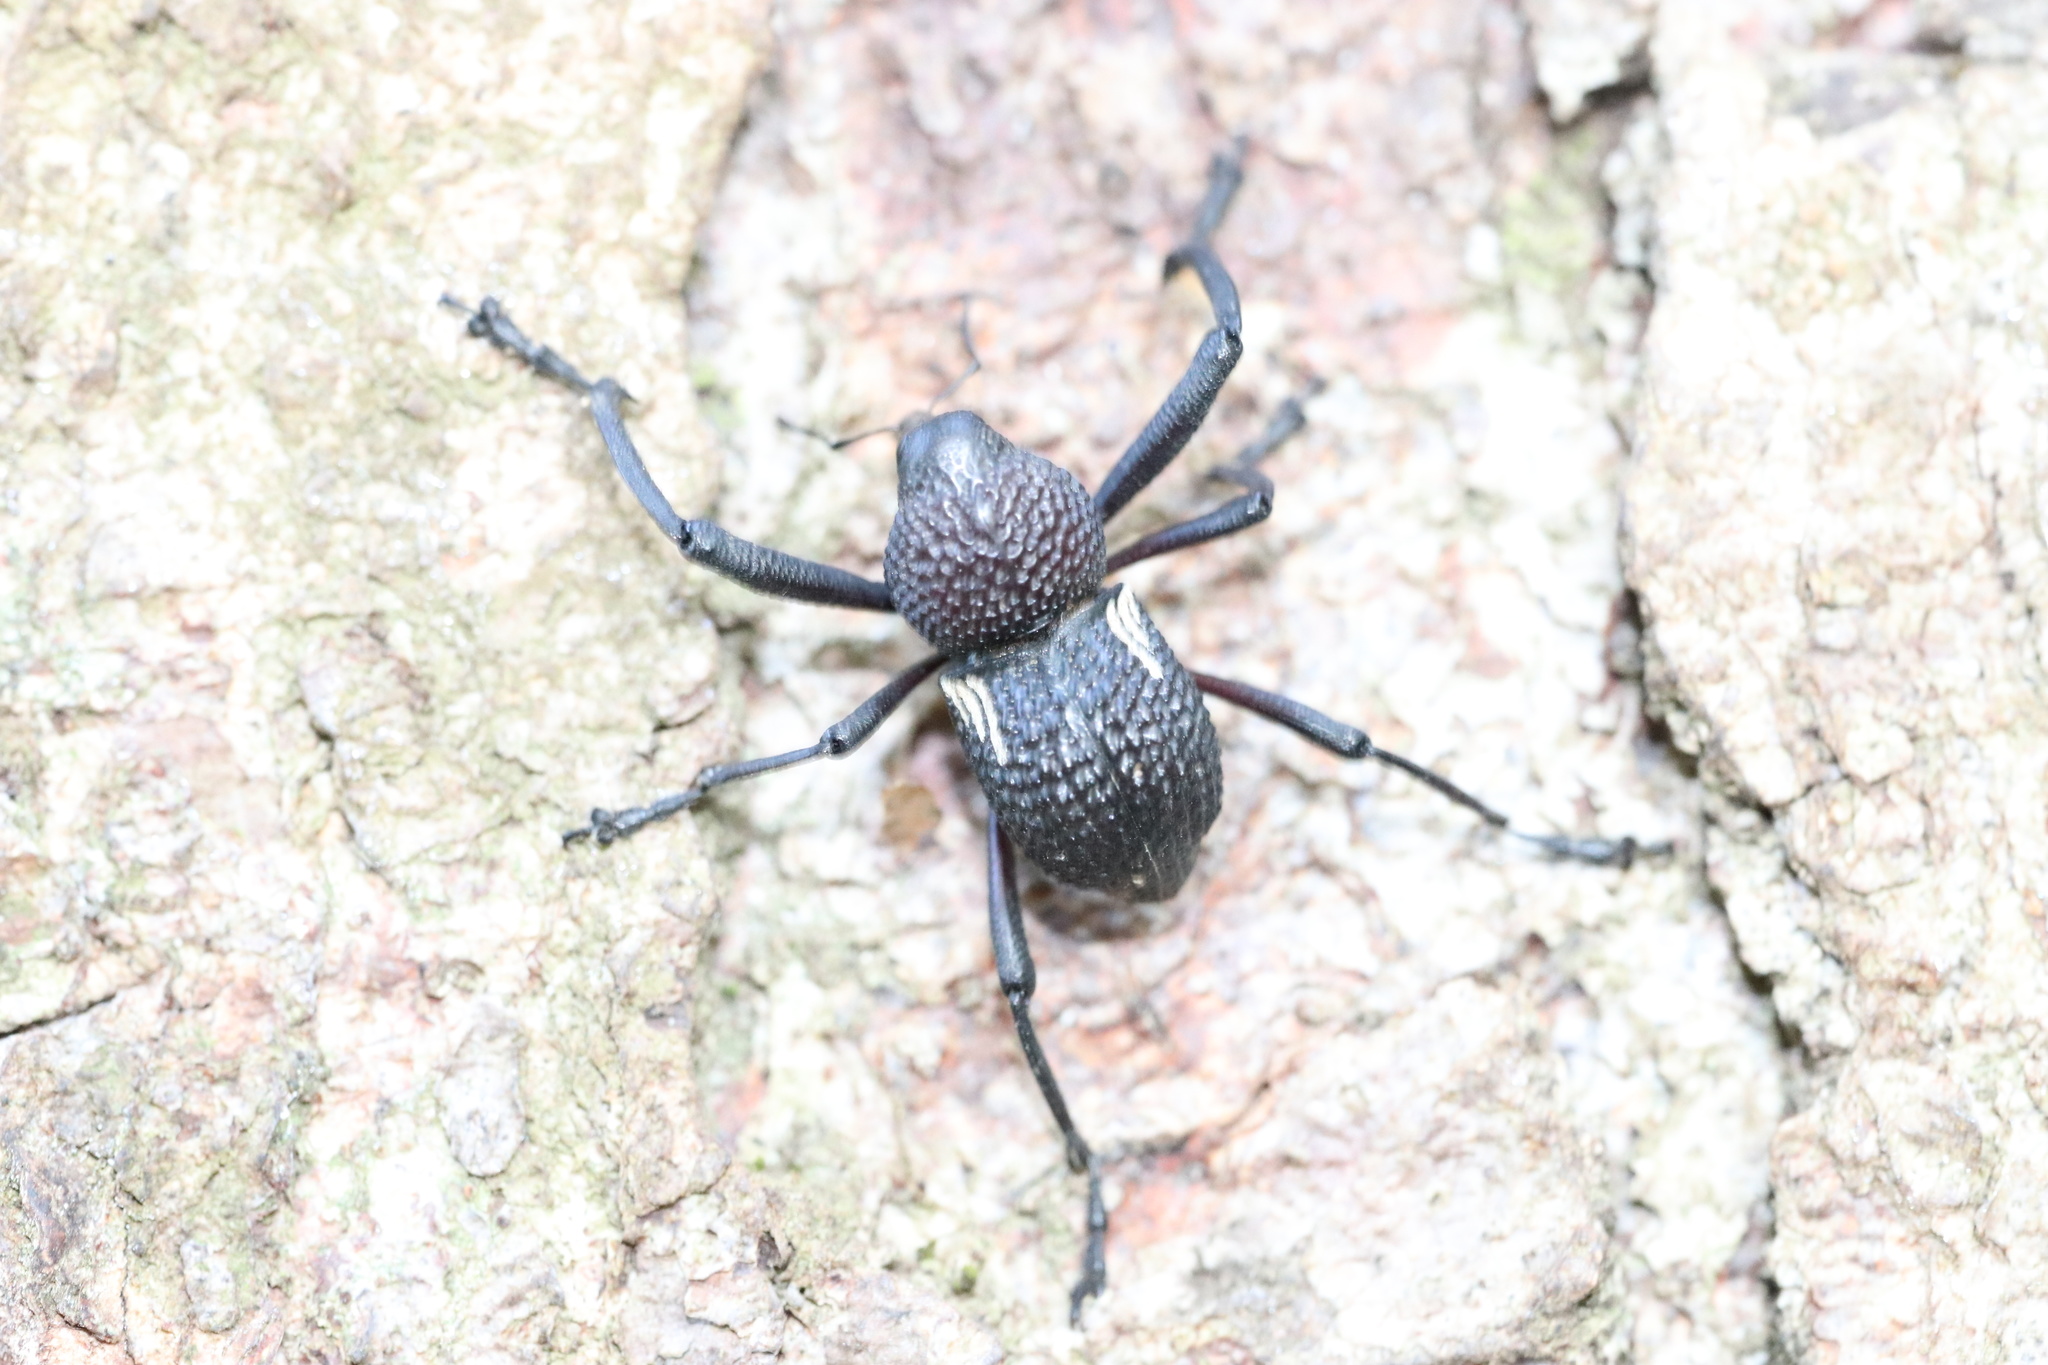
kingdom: Animalia
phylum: Arthropoda
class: Insecta
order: Coleoptera
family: Curculionidae
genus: Rhyephenes
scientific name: Rhyephenes humeralis
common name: Araè±ita chilena del pino
